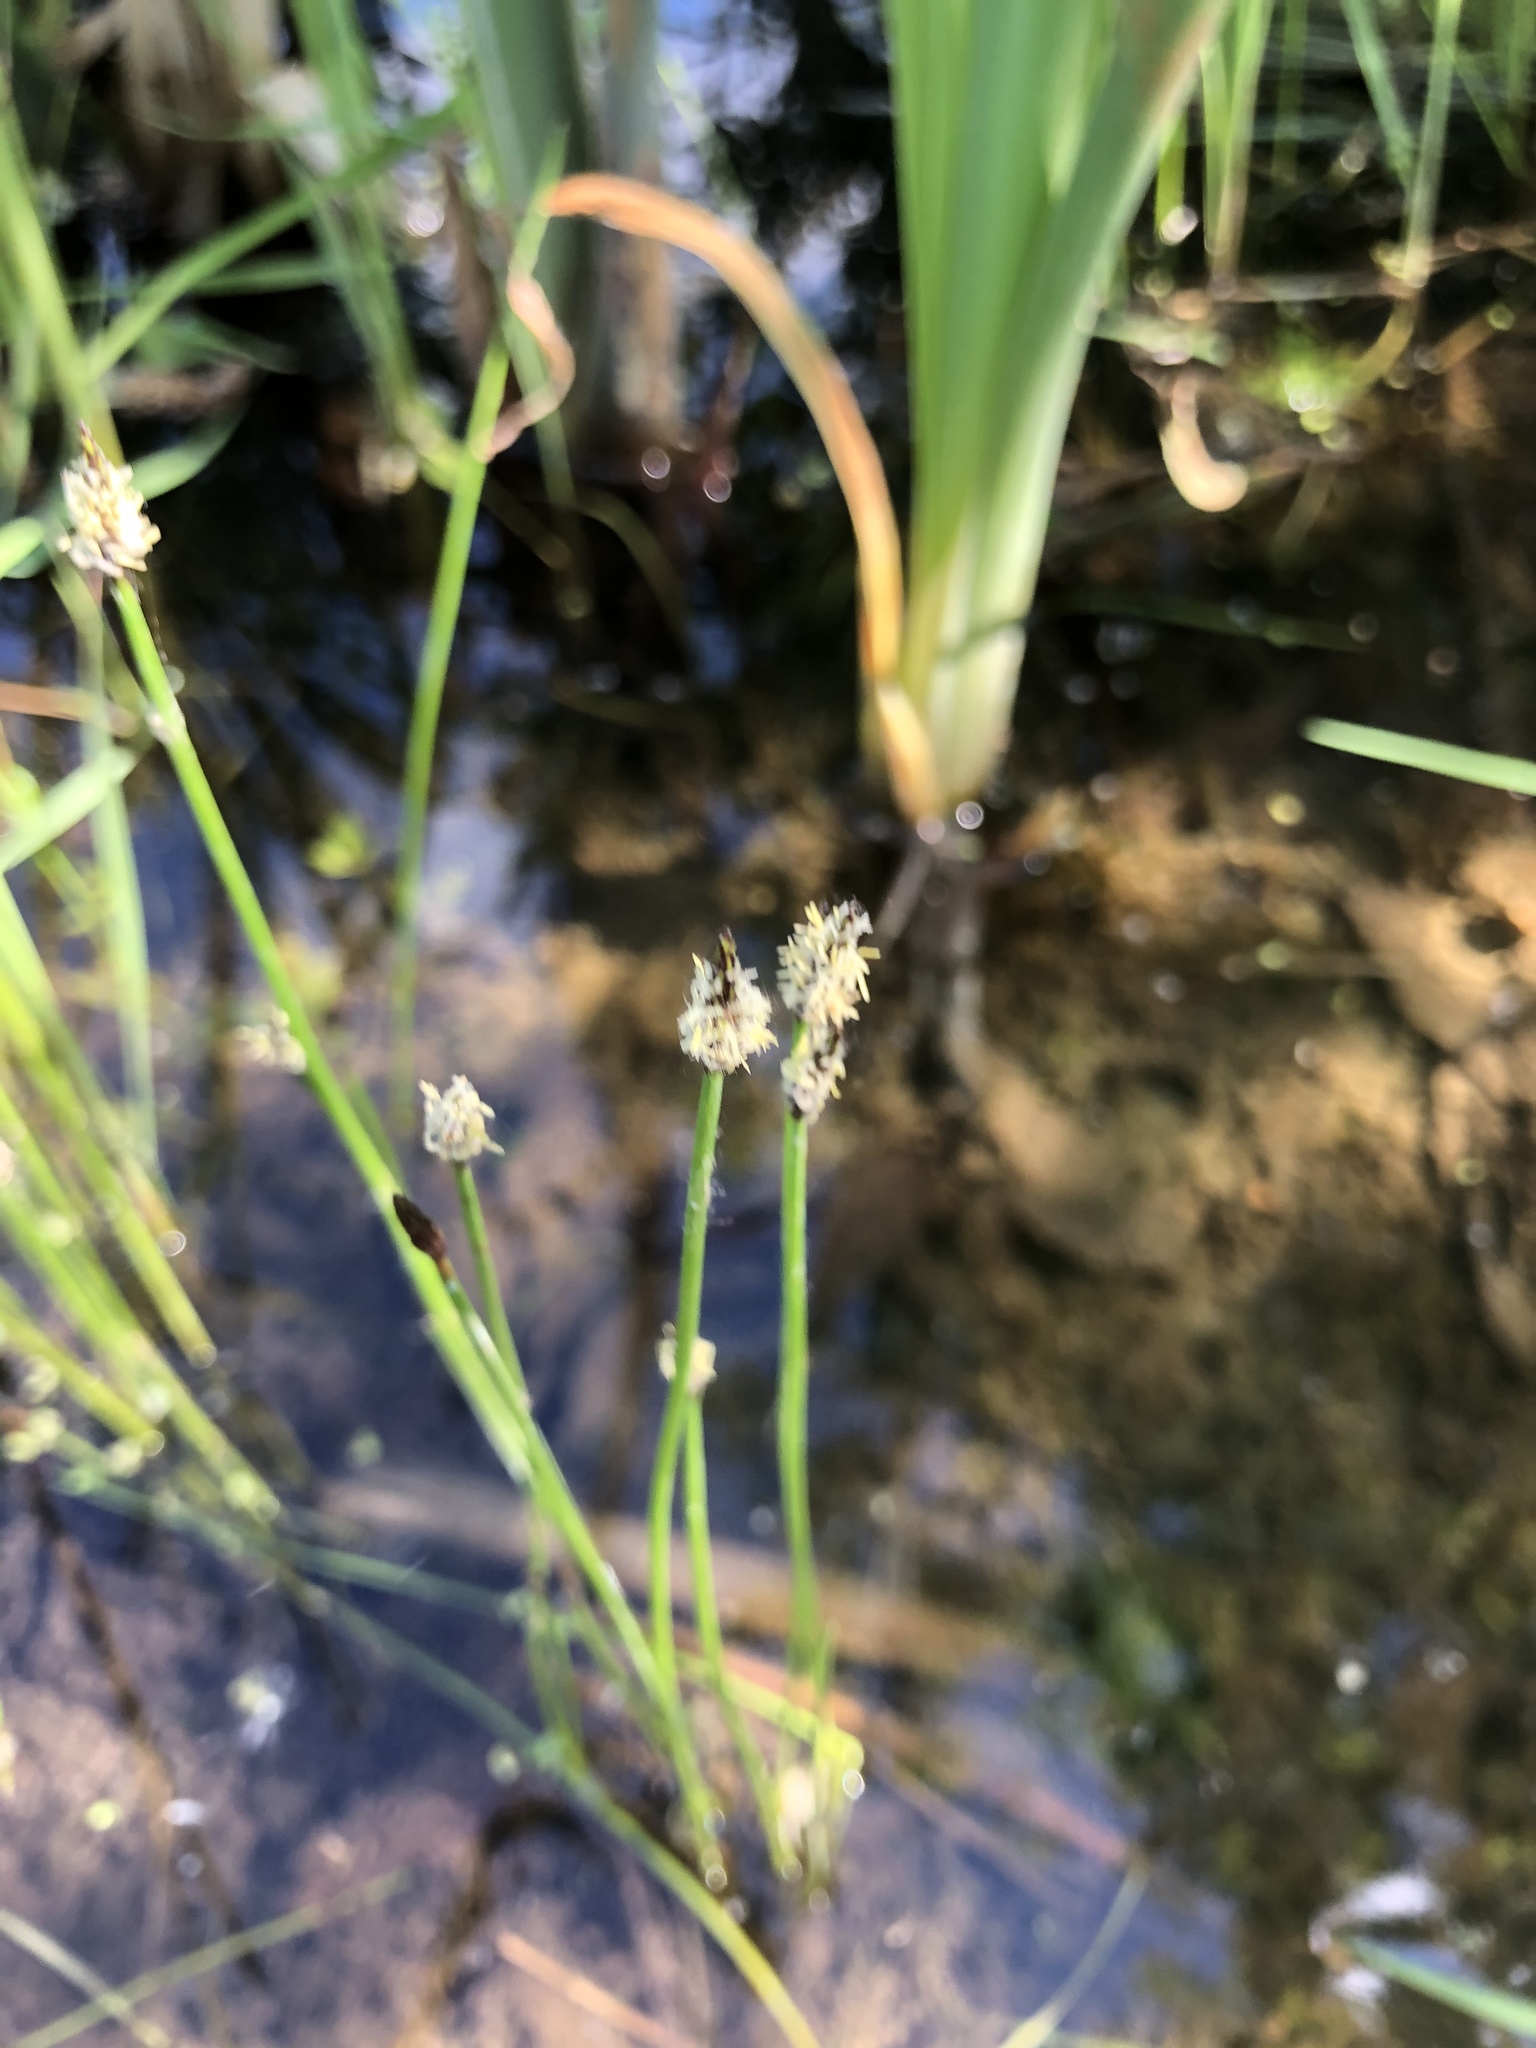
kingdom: Plantae
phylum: Tracheophyta
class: Liliopsida
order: Poales
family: Cyperaceae
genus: Eleocharis
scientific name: Eleocharis palustris
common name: Common spike-rush
